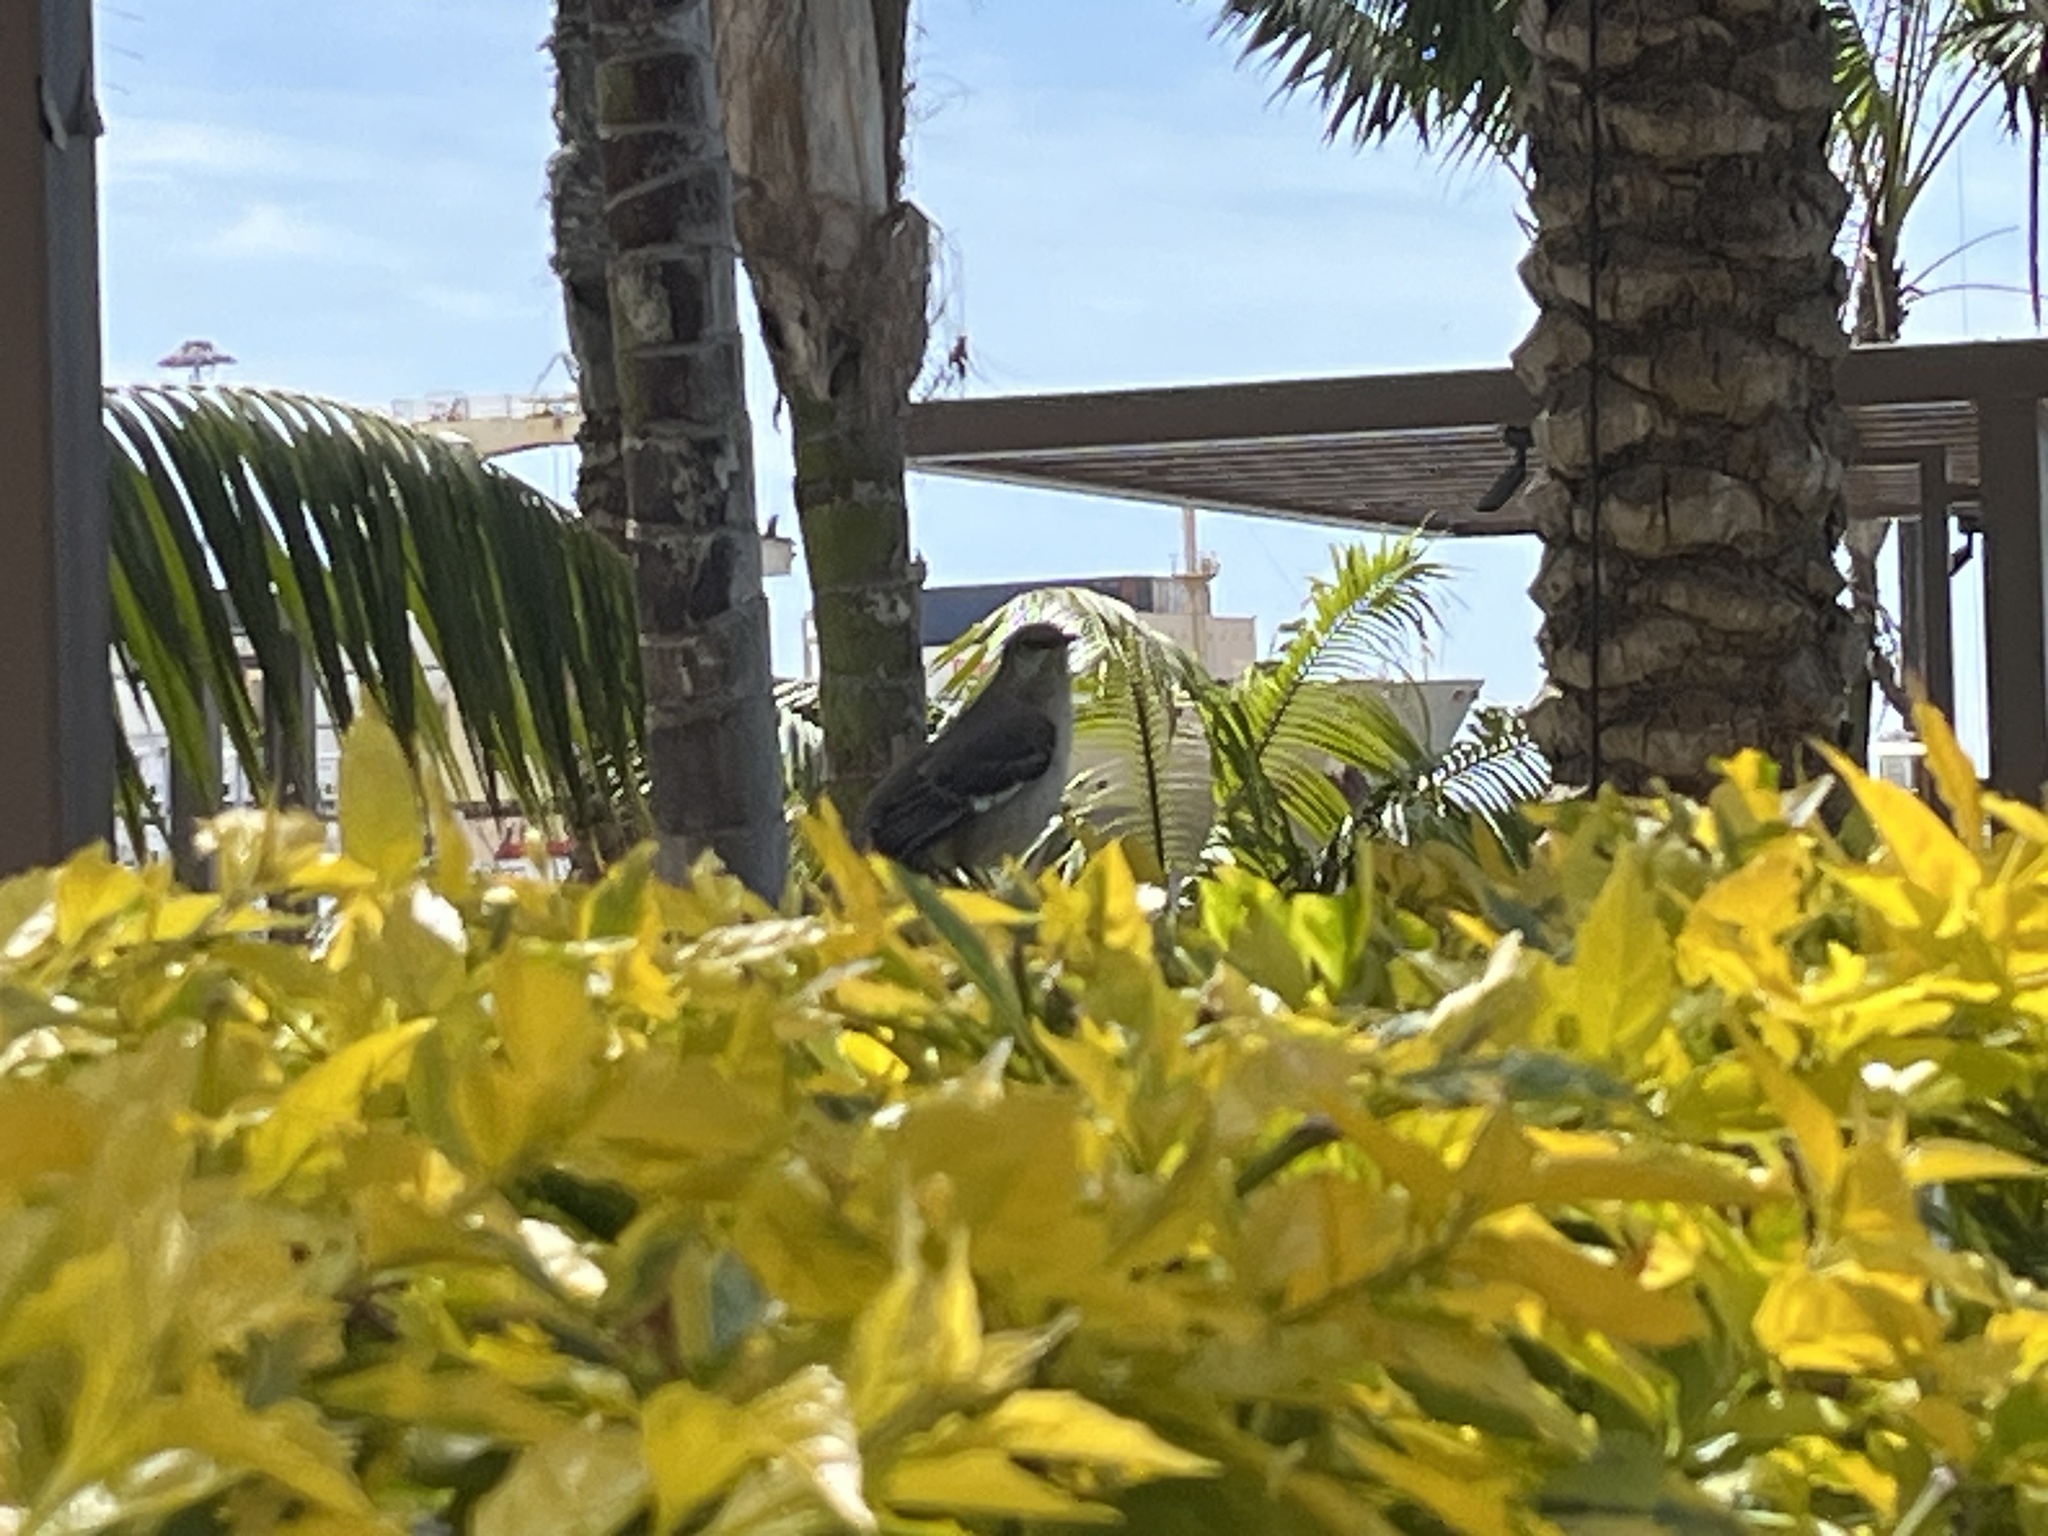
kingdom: Animalia
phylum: Chordata
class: Aves
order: Passeriformes
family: Mimidae
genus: Mimus
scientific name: Mimus polyglottos
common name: Northern mockingbird
